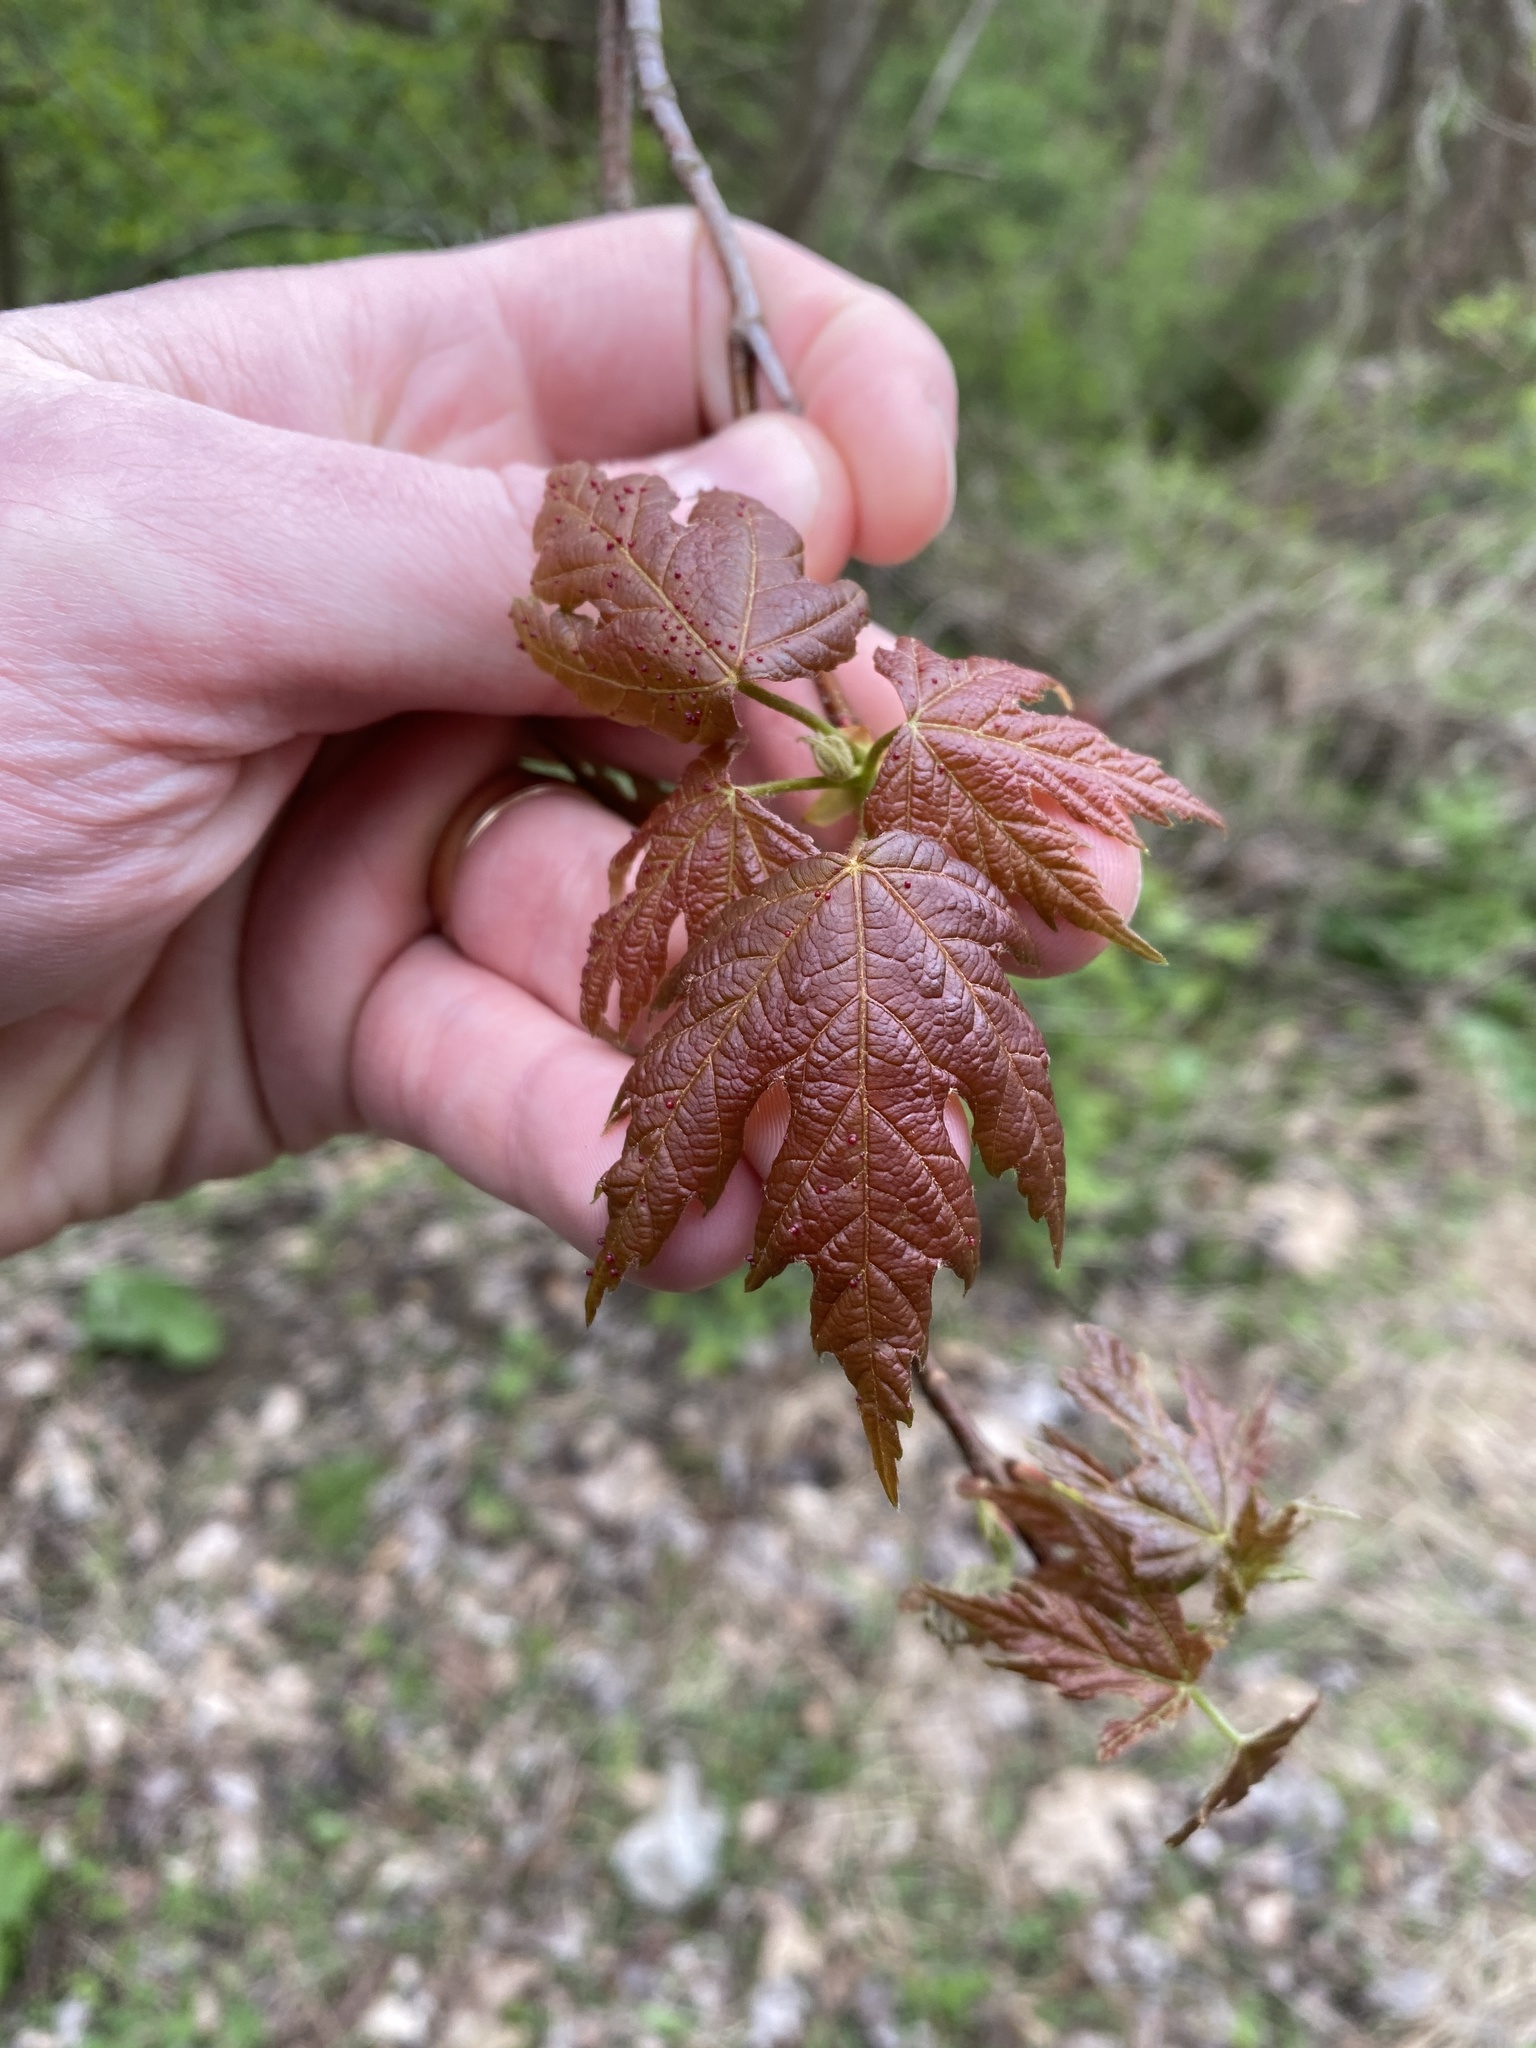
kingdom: Plantae
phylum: Tracheophyta
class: Magnoliopsida
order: Sapindales
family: Sapindaceae
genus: Acer
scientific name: Acer saccharinum
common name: Silver maple
